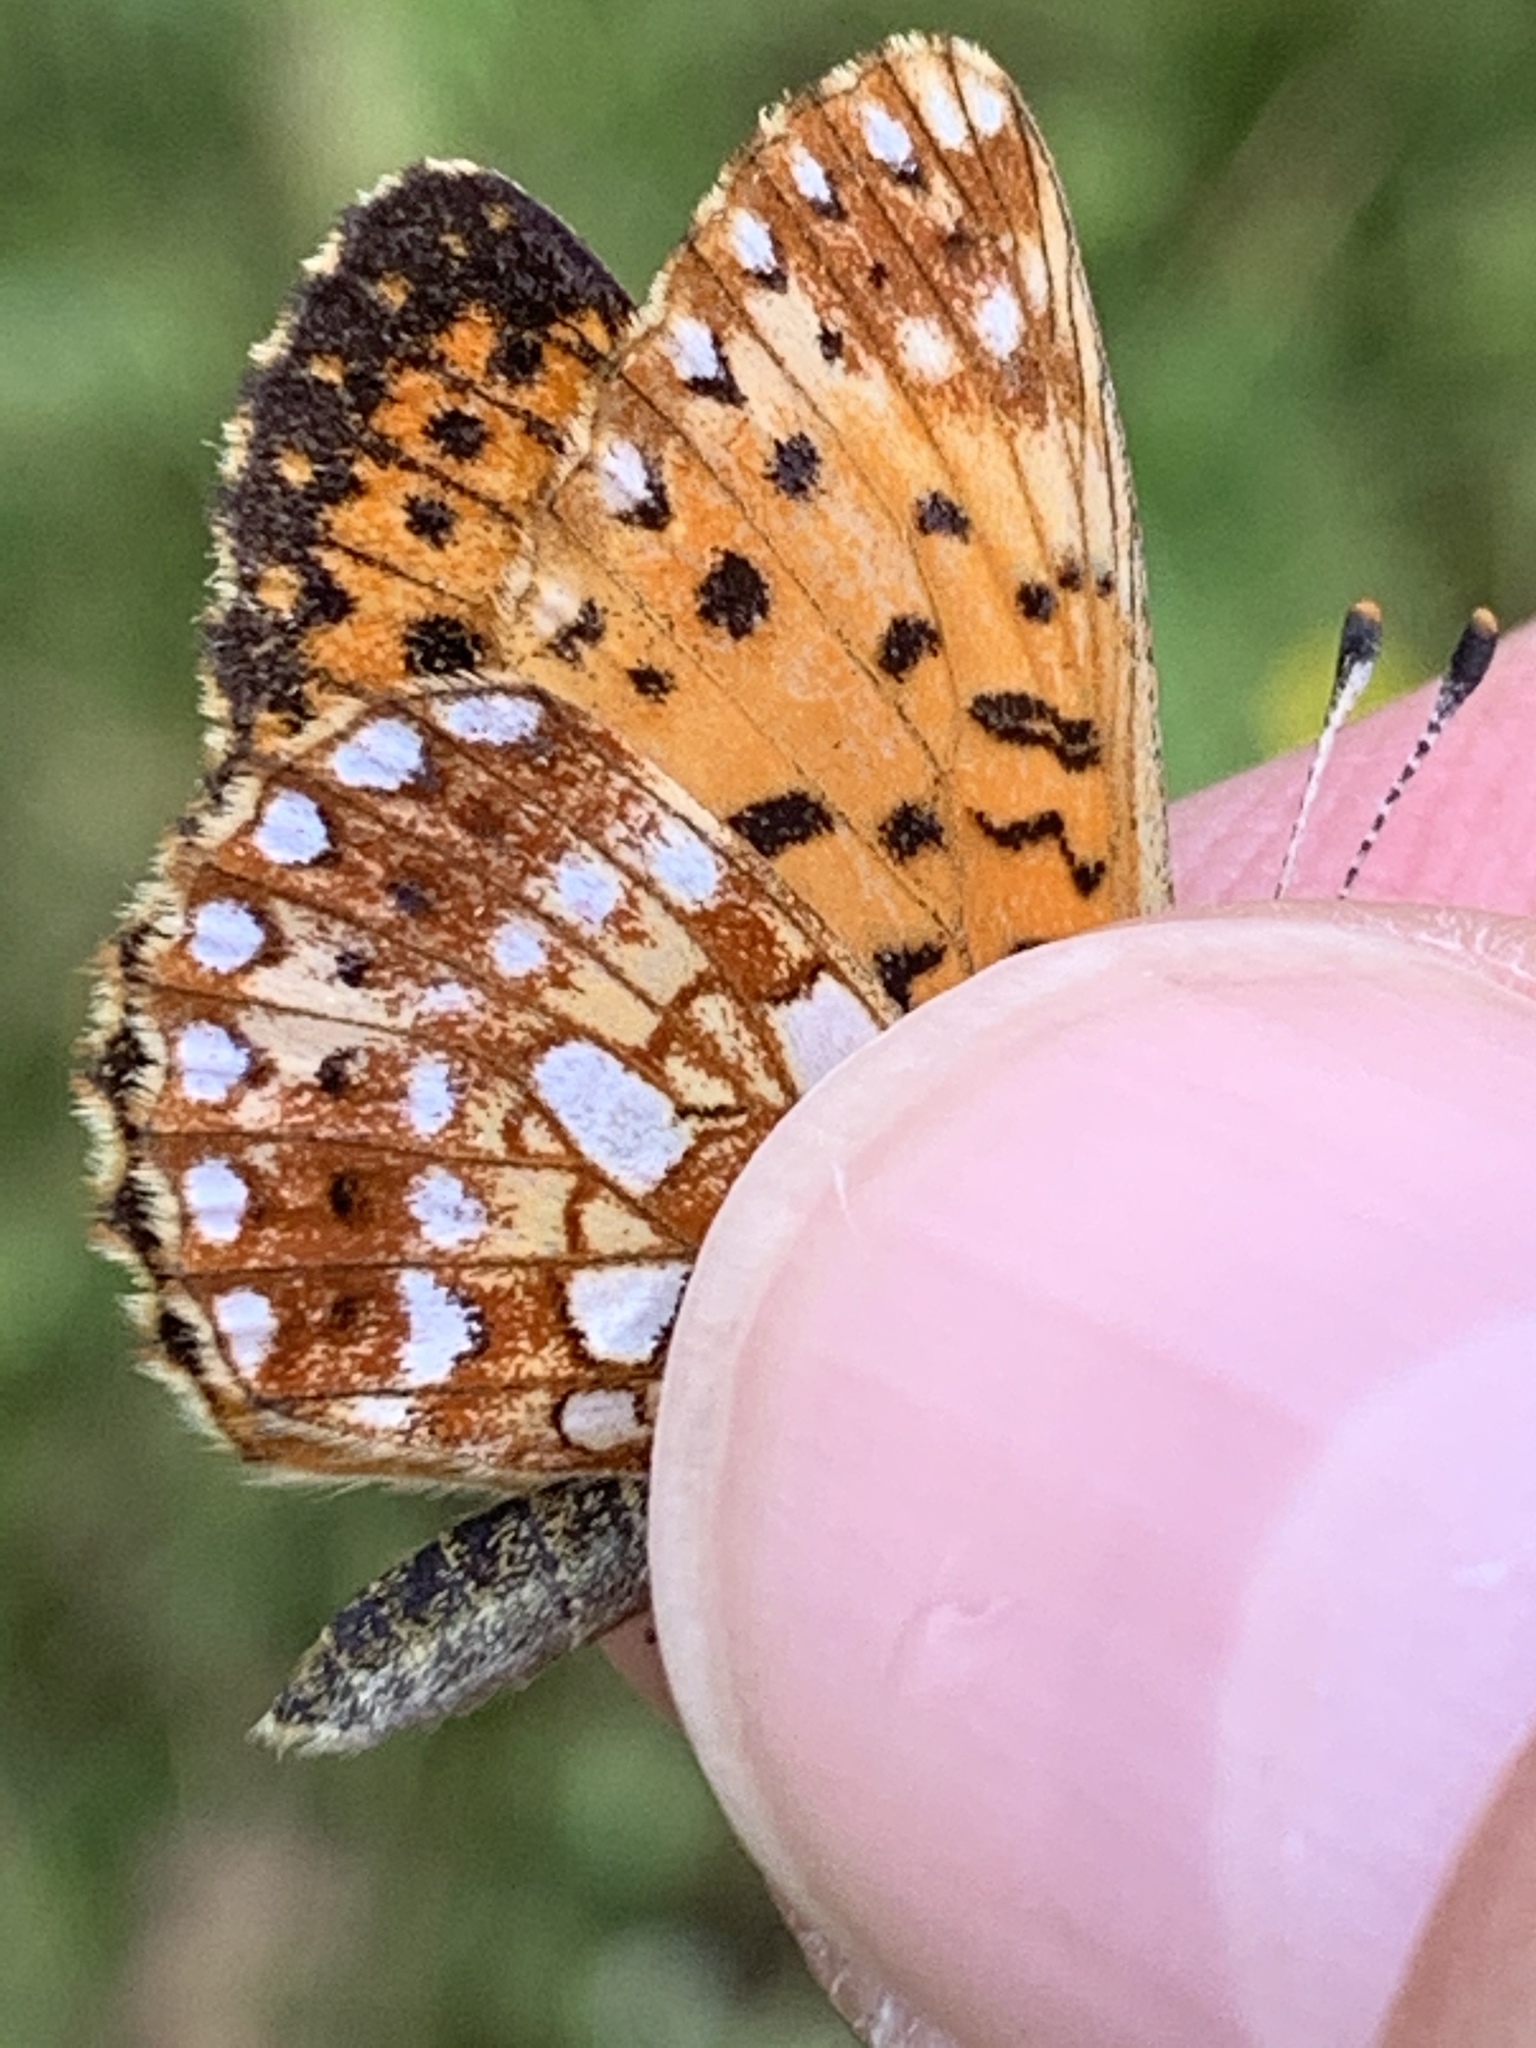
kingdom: Animalia
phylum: Arthropoda
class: Insecta
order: Lepidoptera
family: Nymphalidae
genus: Boloria
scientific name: Boloria
